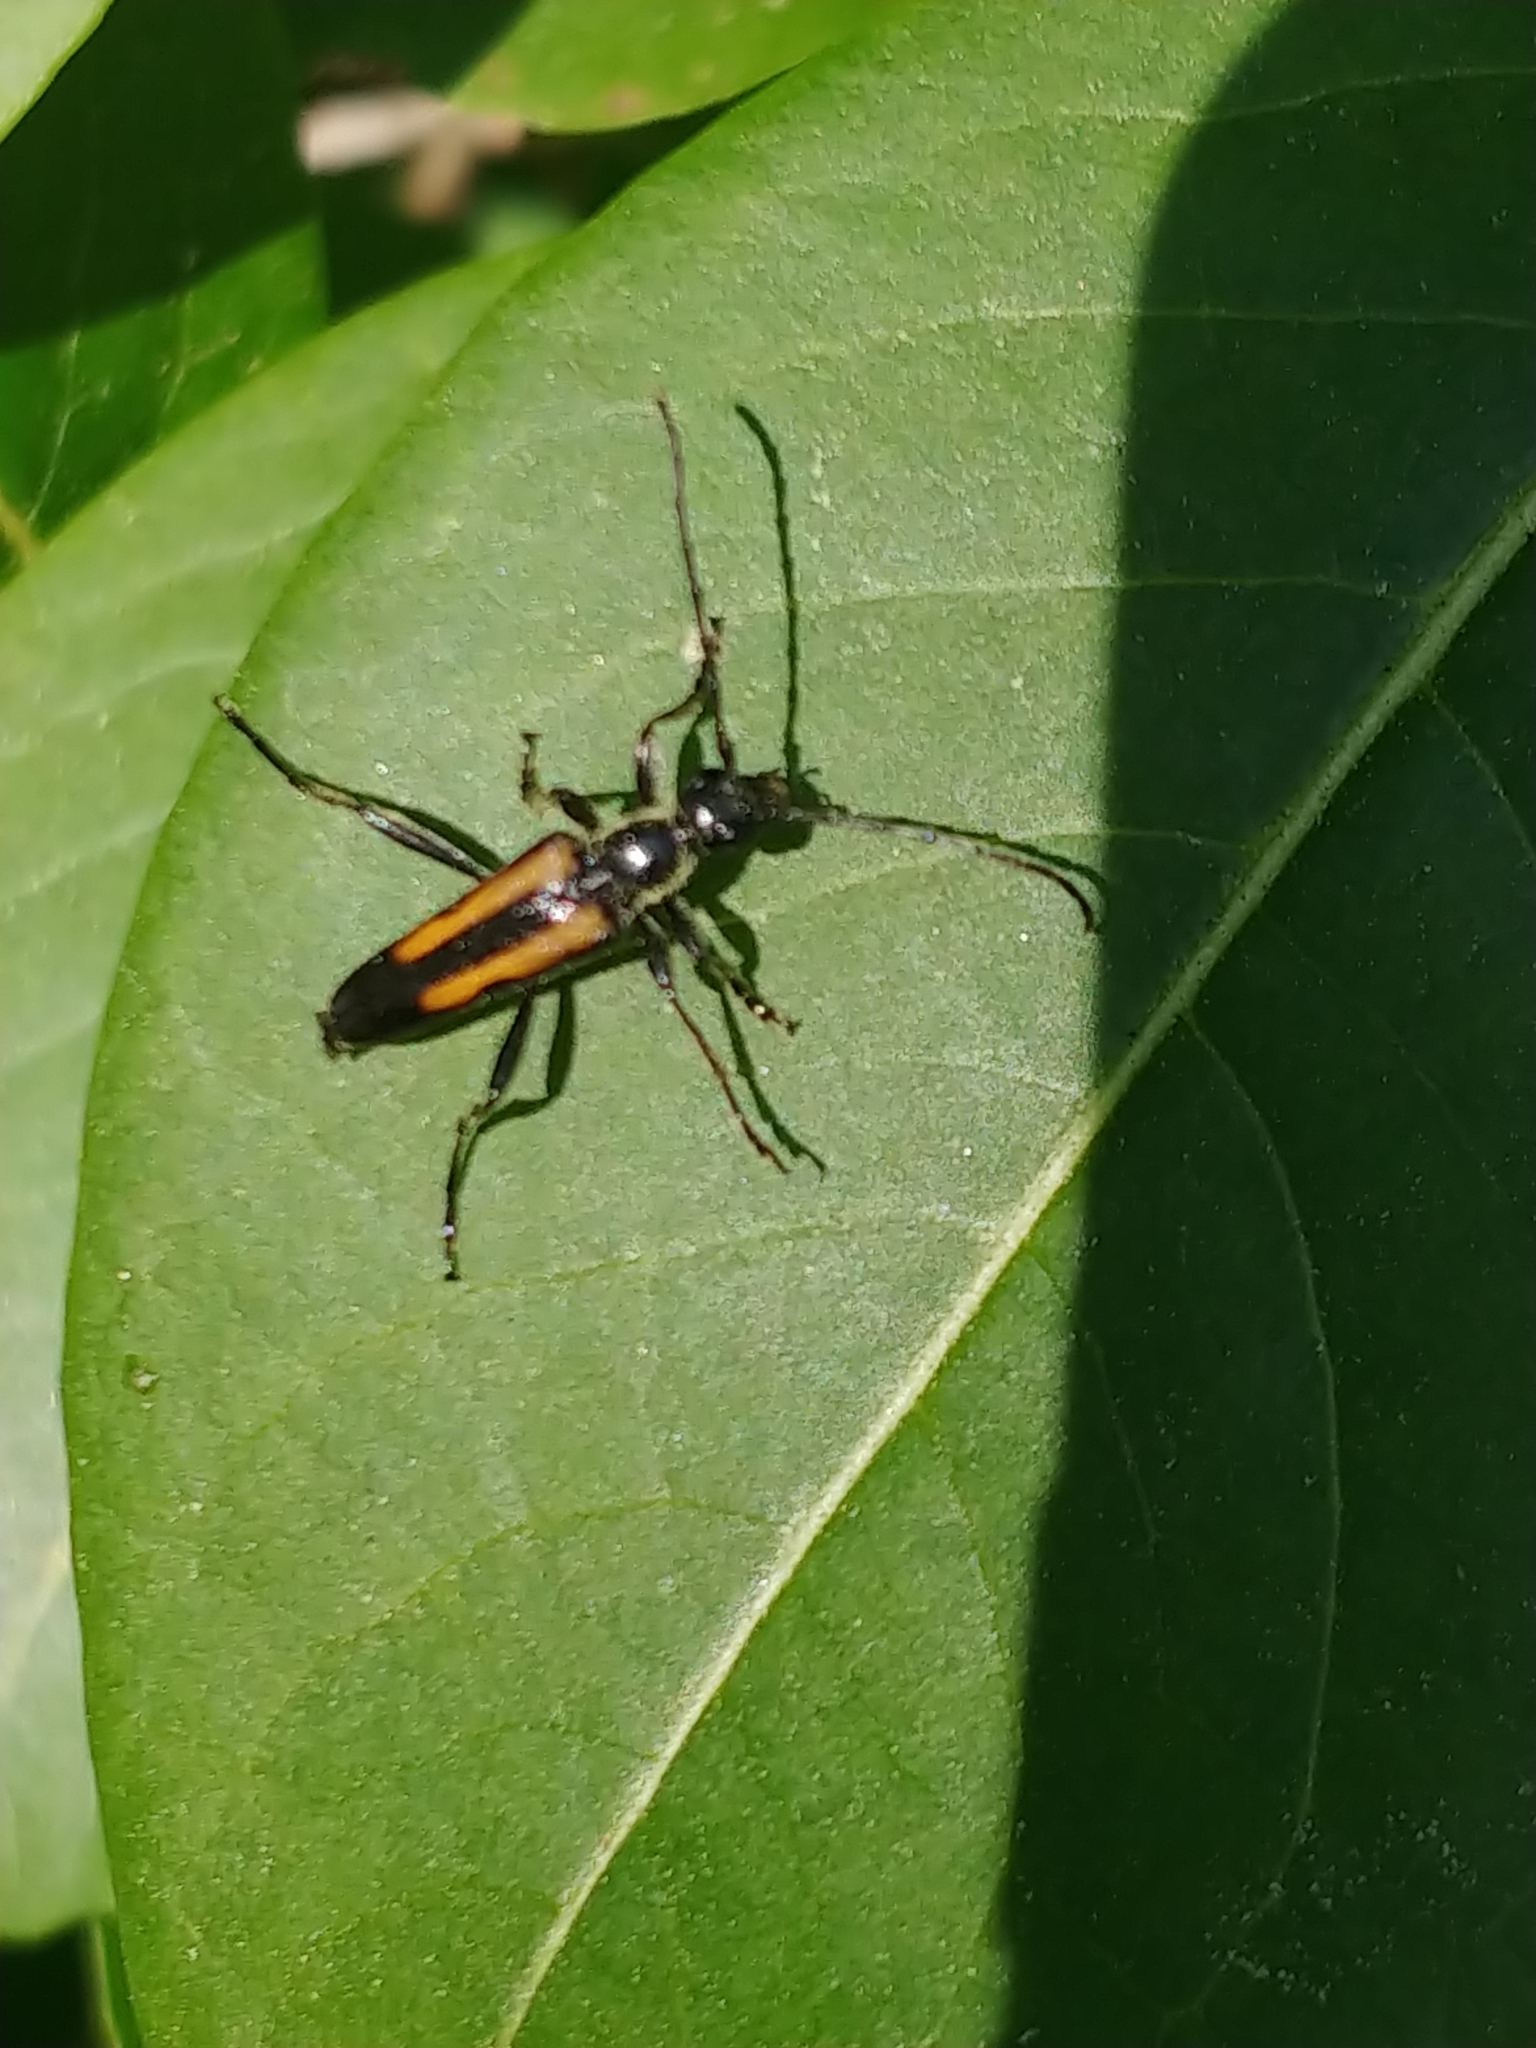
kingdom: Animalia
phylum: Arthropoda
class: Insecta
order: Coleoptera
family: Cerambycidae
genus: Strangalepta
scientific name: Strangalepta abbreviata
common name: Strangalepta flower longhorn beetle
